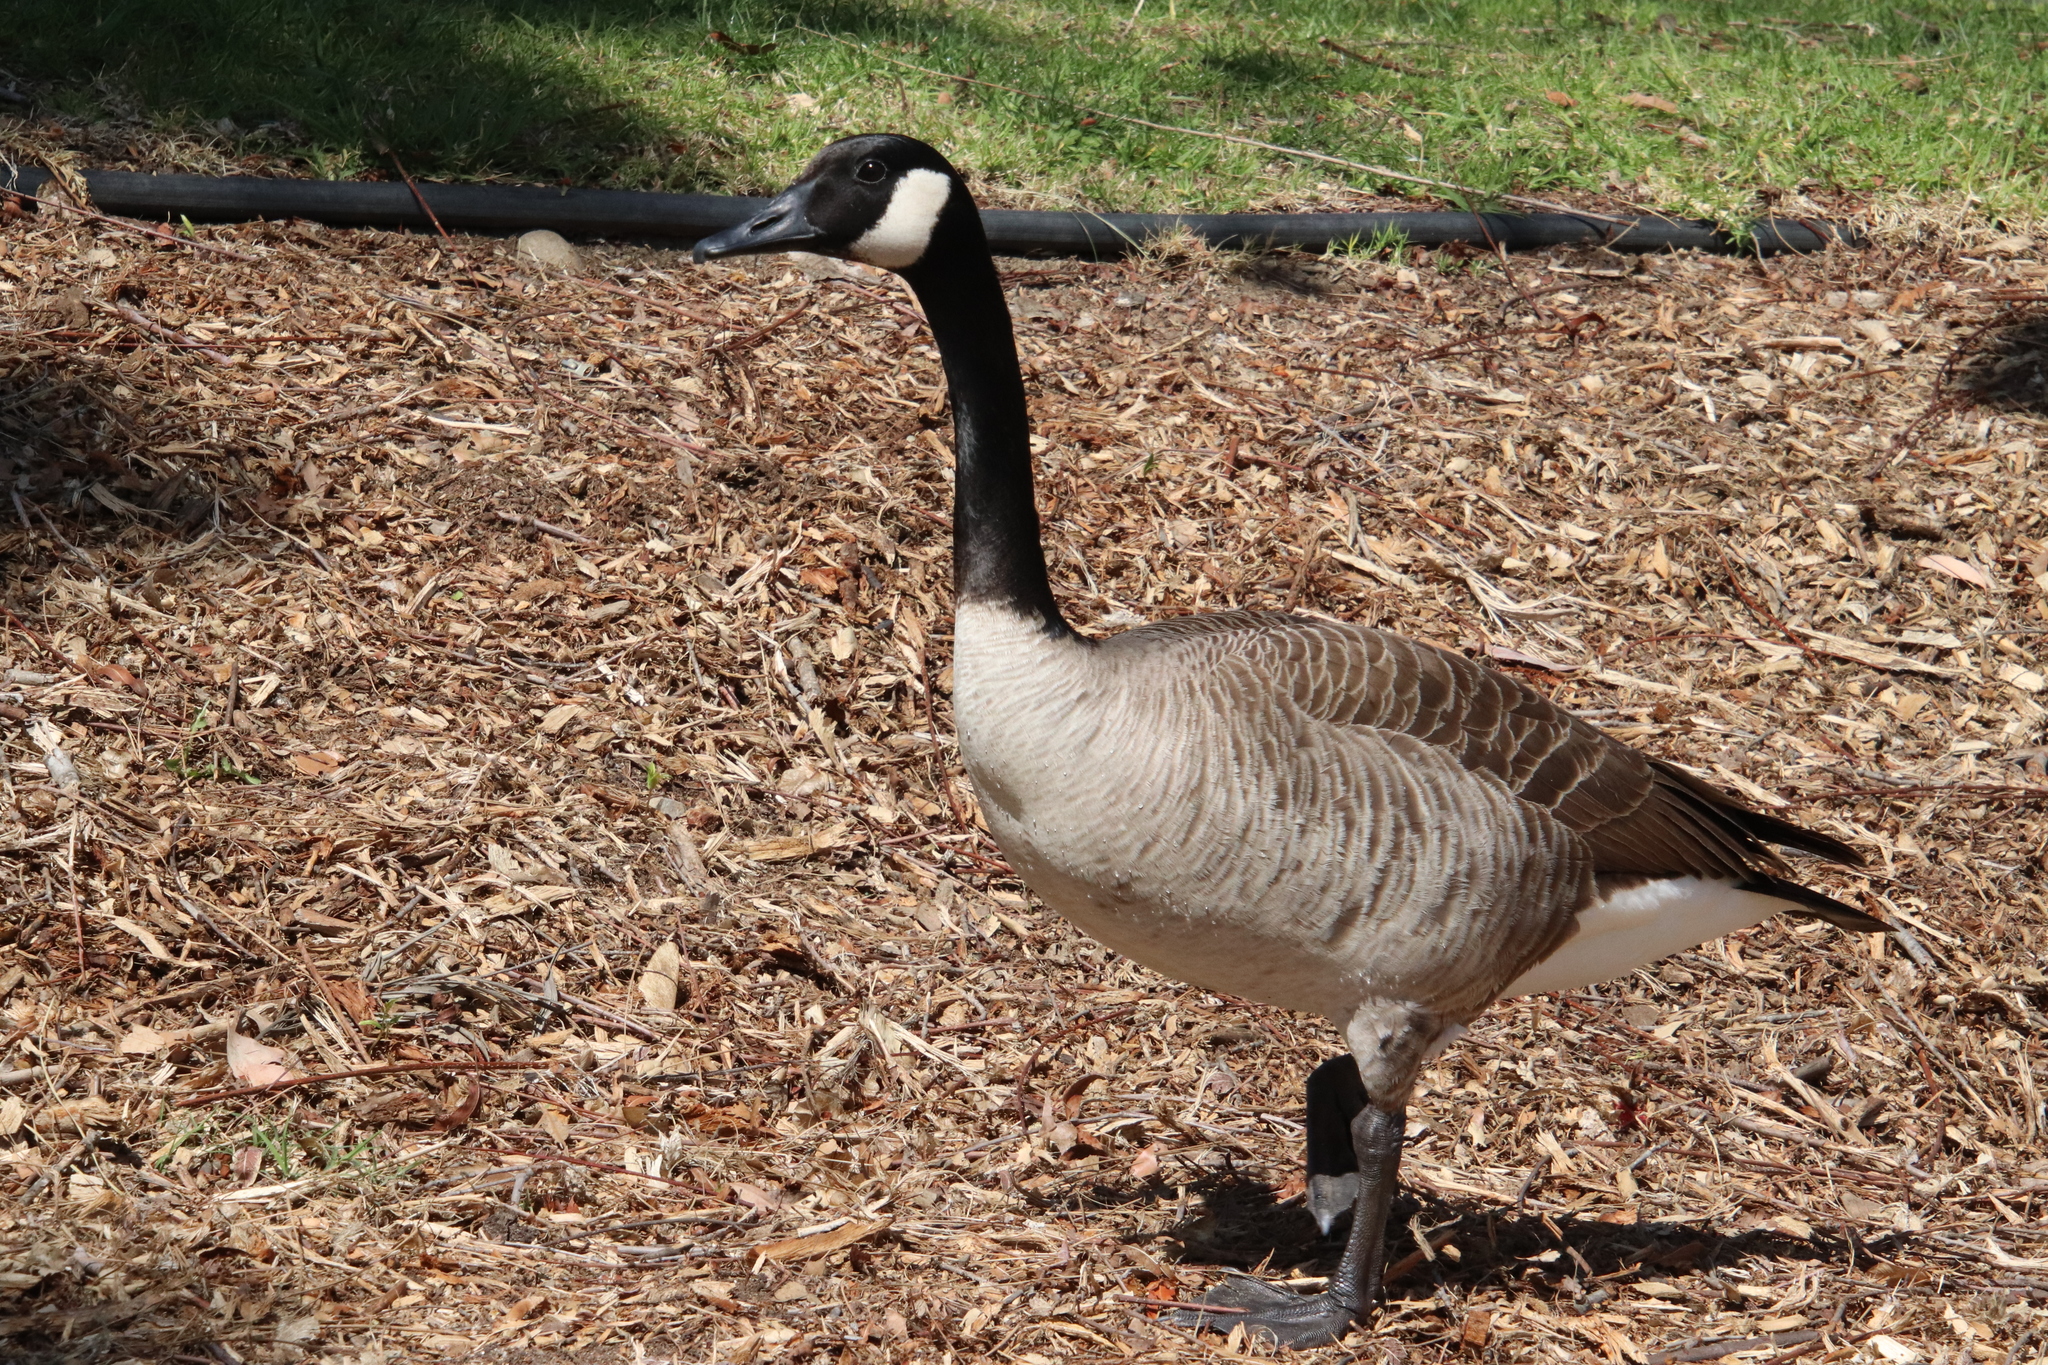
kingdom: Animalia
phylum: Chordata
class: Aves
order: Anseriformes
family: Anatidae
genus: Branta
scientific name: Branta canadensis
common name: Canada goose
